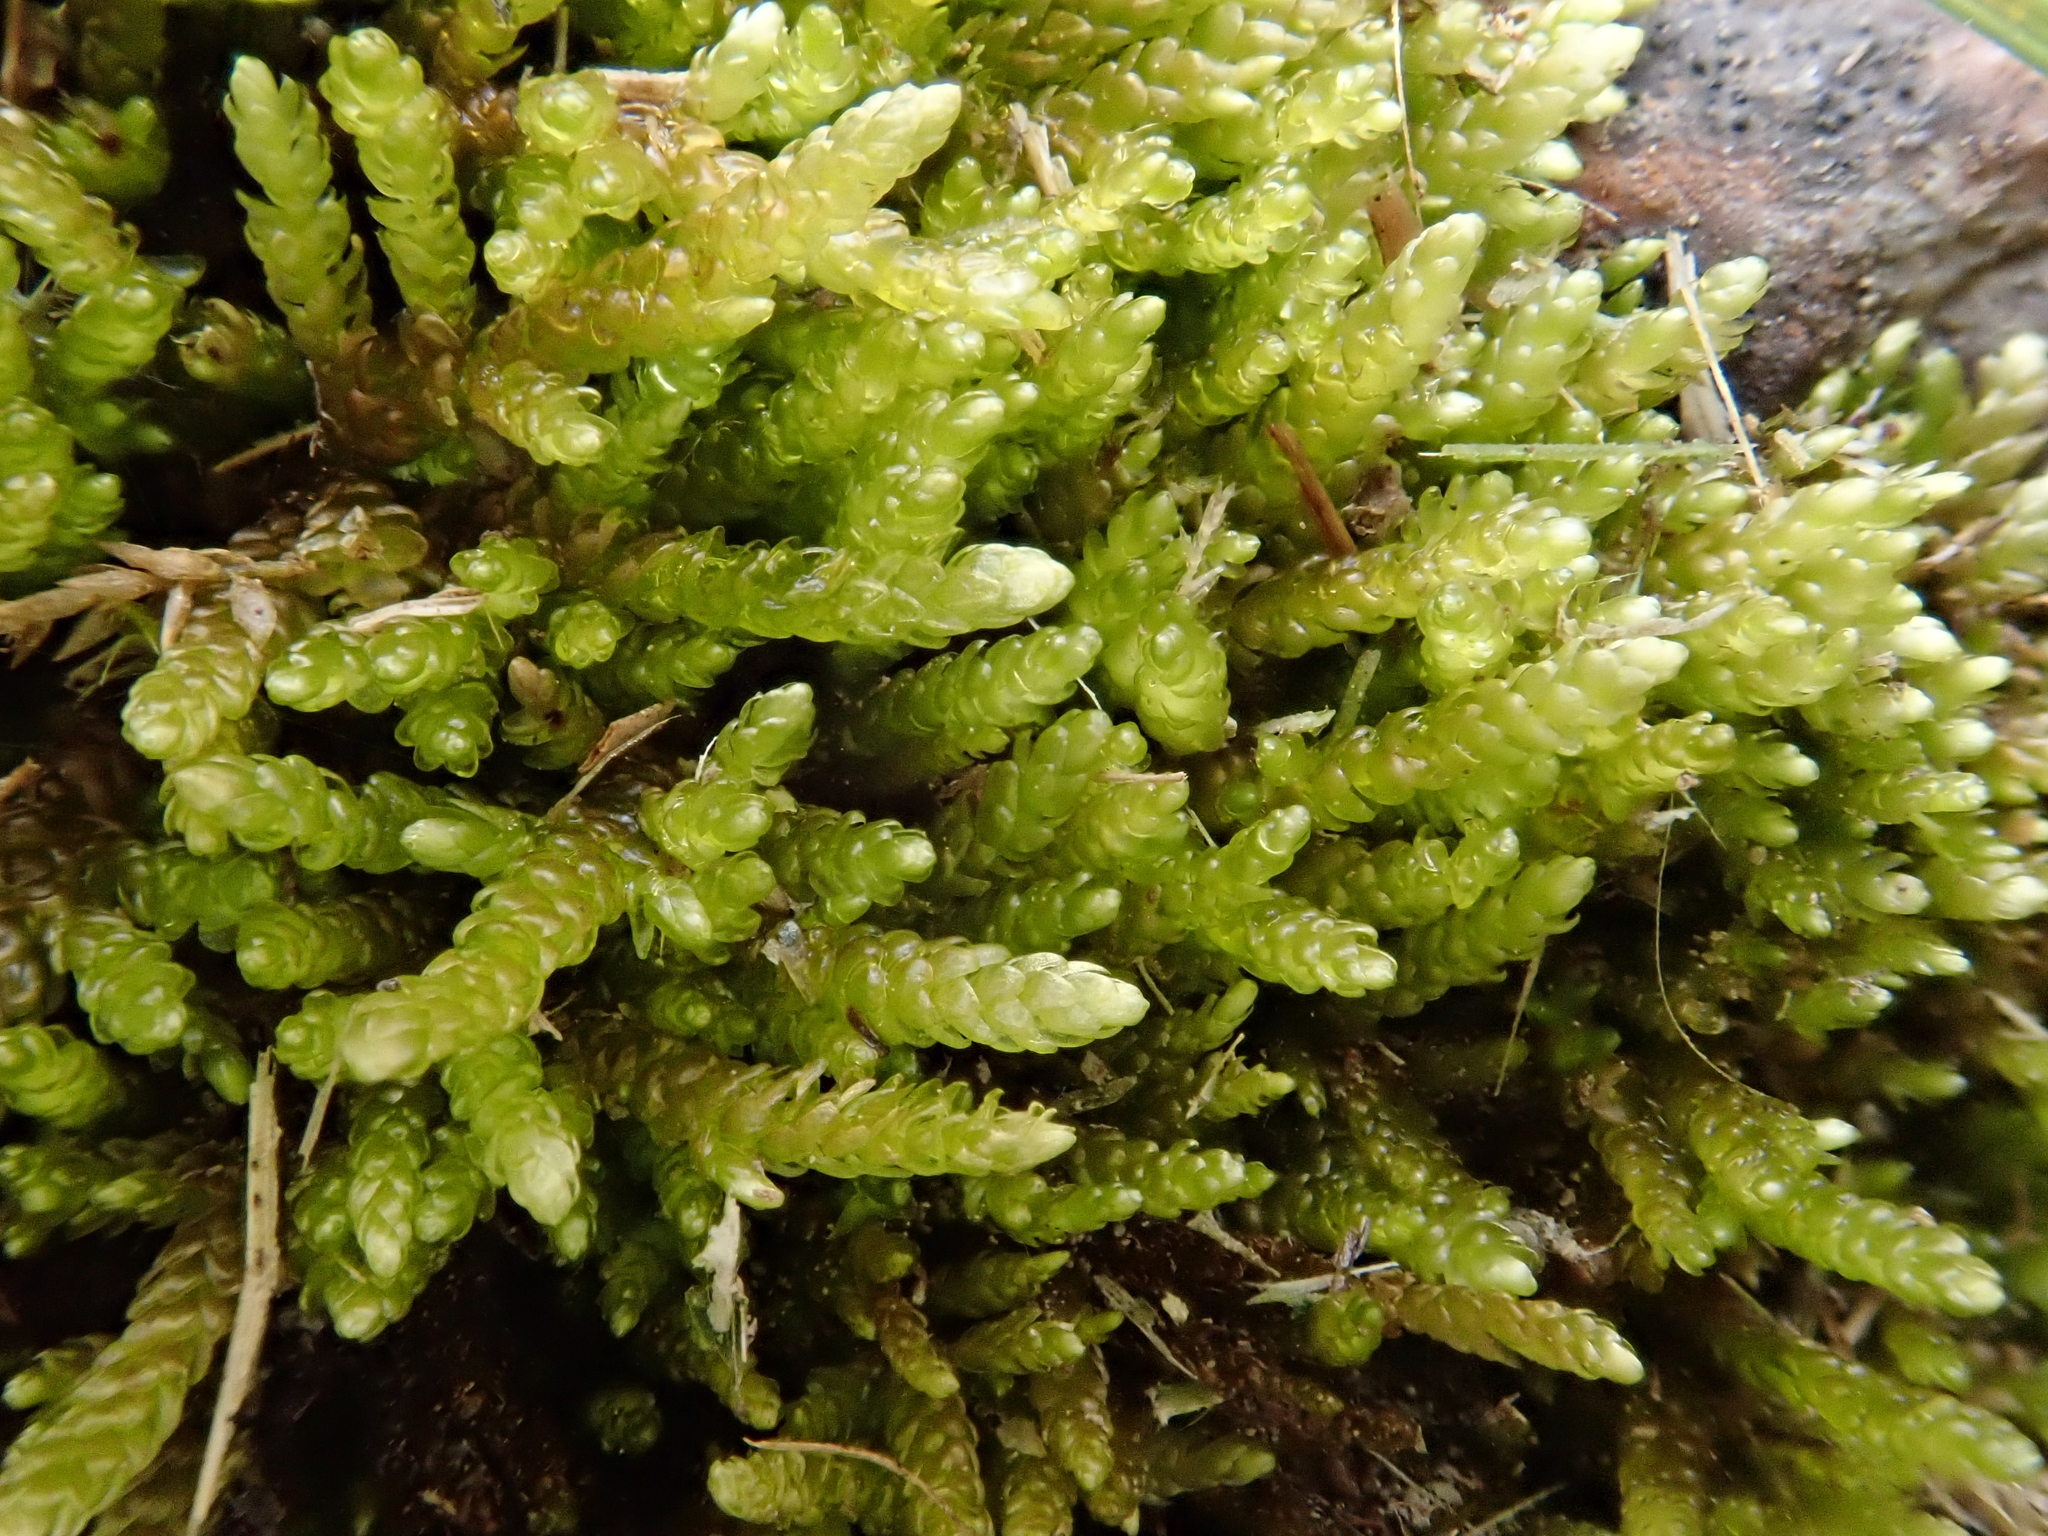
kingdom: Plantae
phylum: Bryophyta
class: Bryopsida
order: Hypnales
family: Brachytheciaceae
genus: Rhynchostegium
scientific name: Rhynchostegium murale
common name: Wall feather-moss
